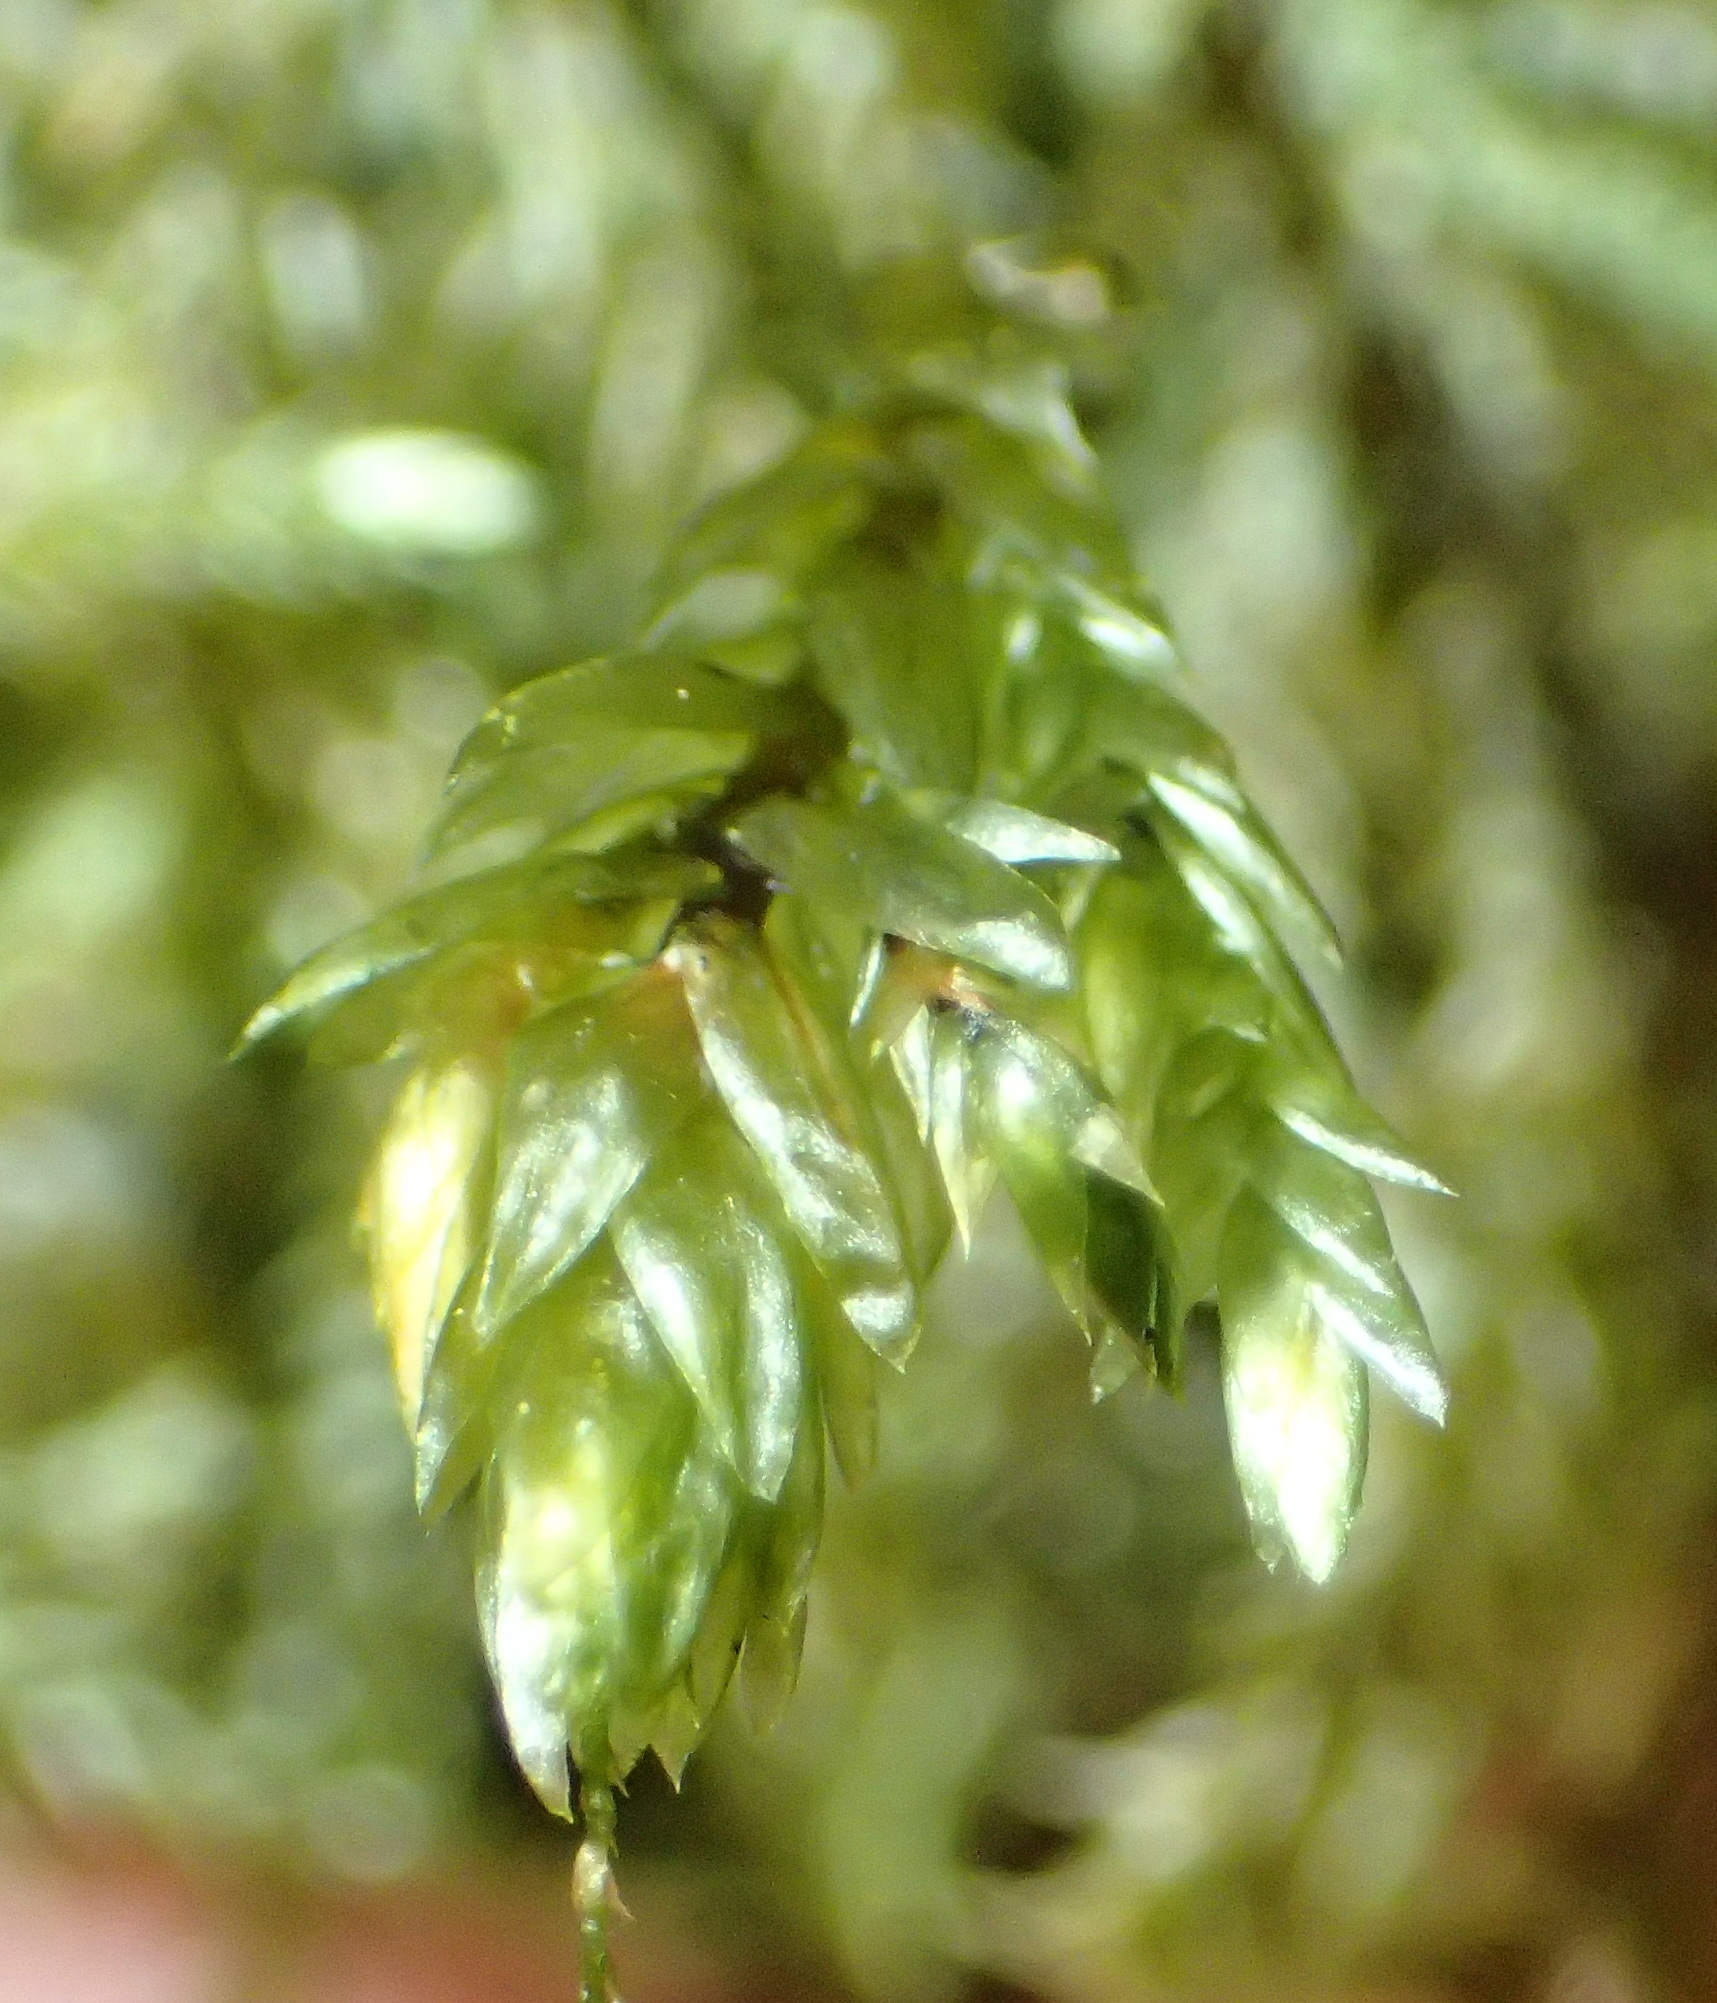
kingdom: Plantae
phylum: Bryophyta
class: Bryopsida
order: Hypnales
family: Neckeraceae
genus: Porotrichum
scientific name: Porotrichum madagassum
